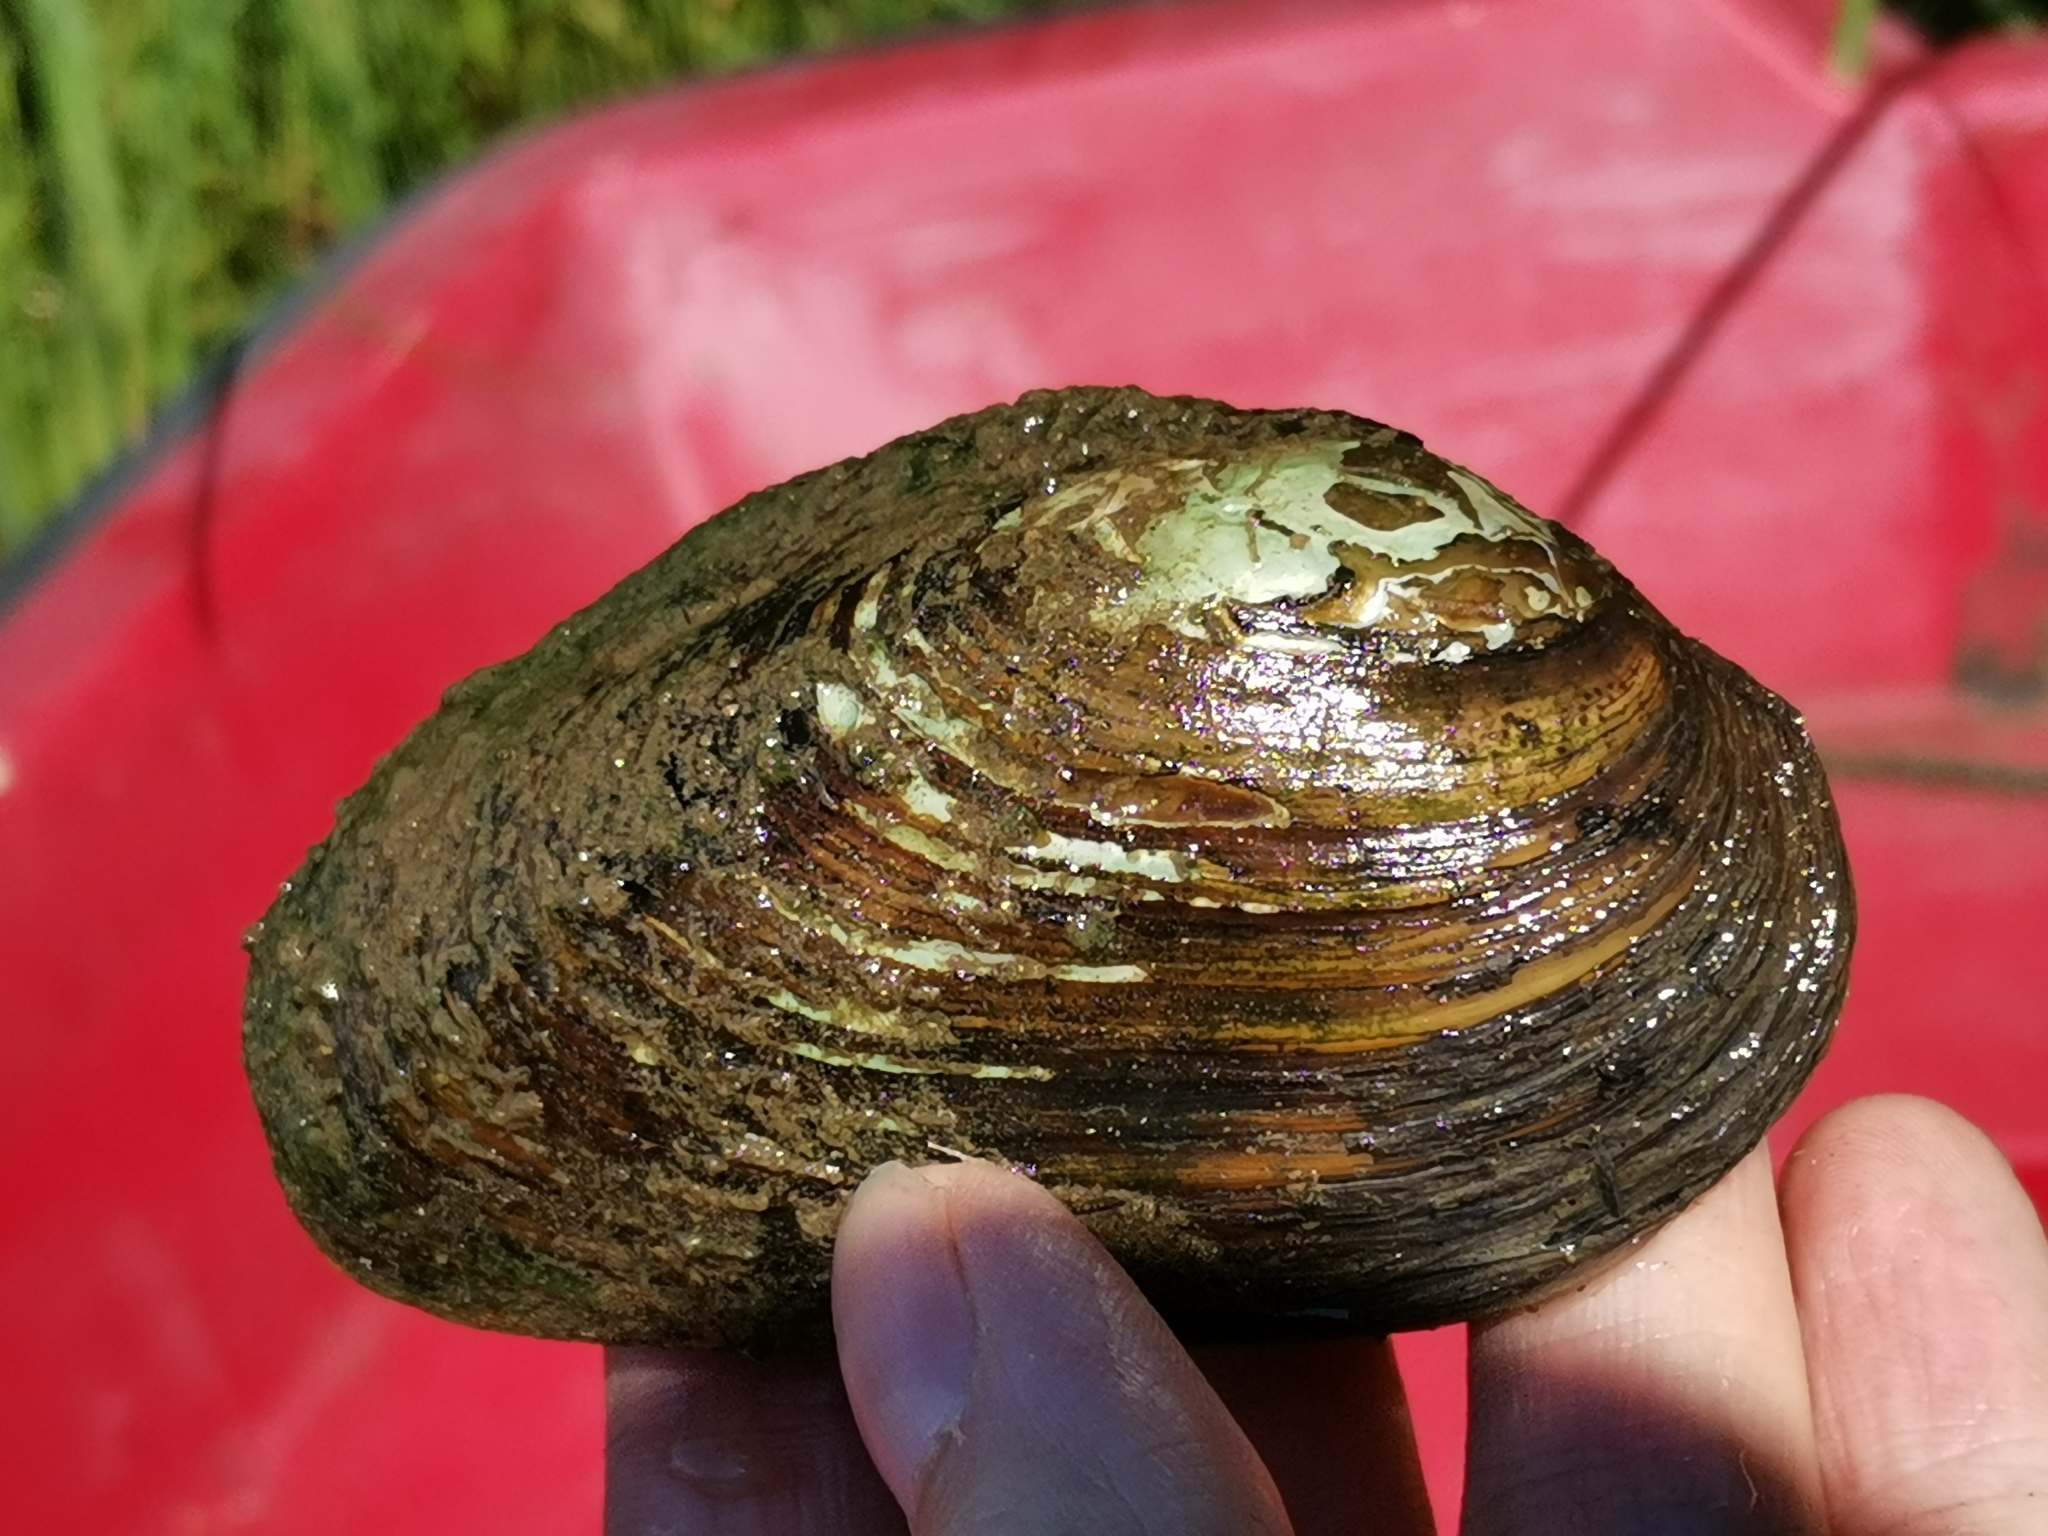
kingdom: Animalia
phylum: Mollusca
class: Bivalvia
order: Unionida
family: Unionidae
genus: Anodonta
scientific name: Anodonta anatina
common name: Duck mussel
